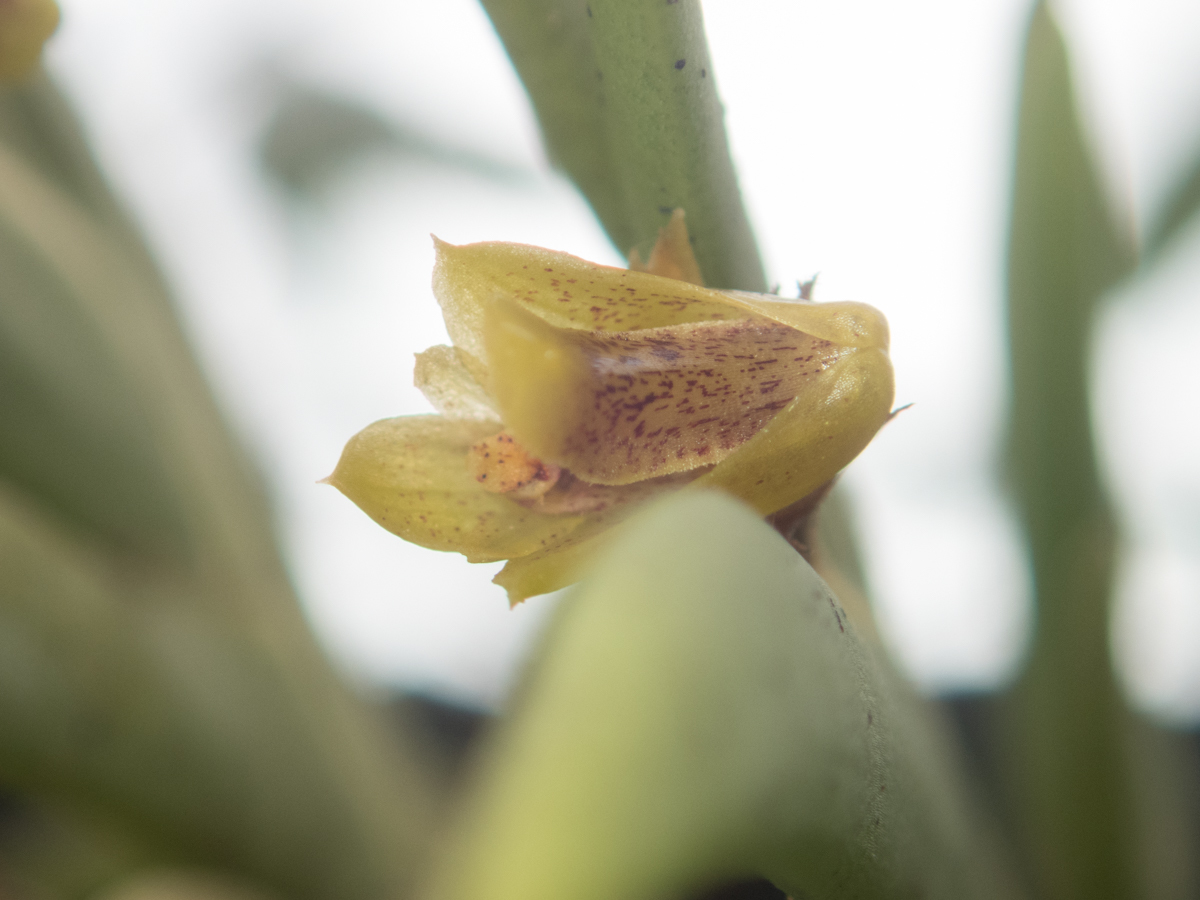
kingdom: Plantae
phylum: Tracheophyta
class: Liliopsida
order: Asparagales
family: Orchidaceae
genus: Oxystophyllum
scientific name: Oxystophyllum carnosum
